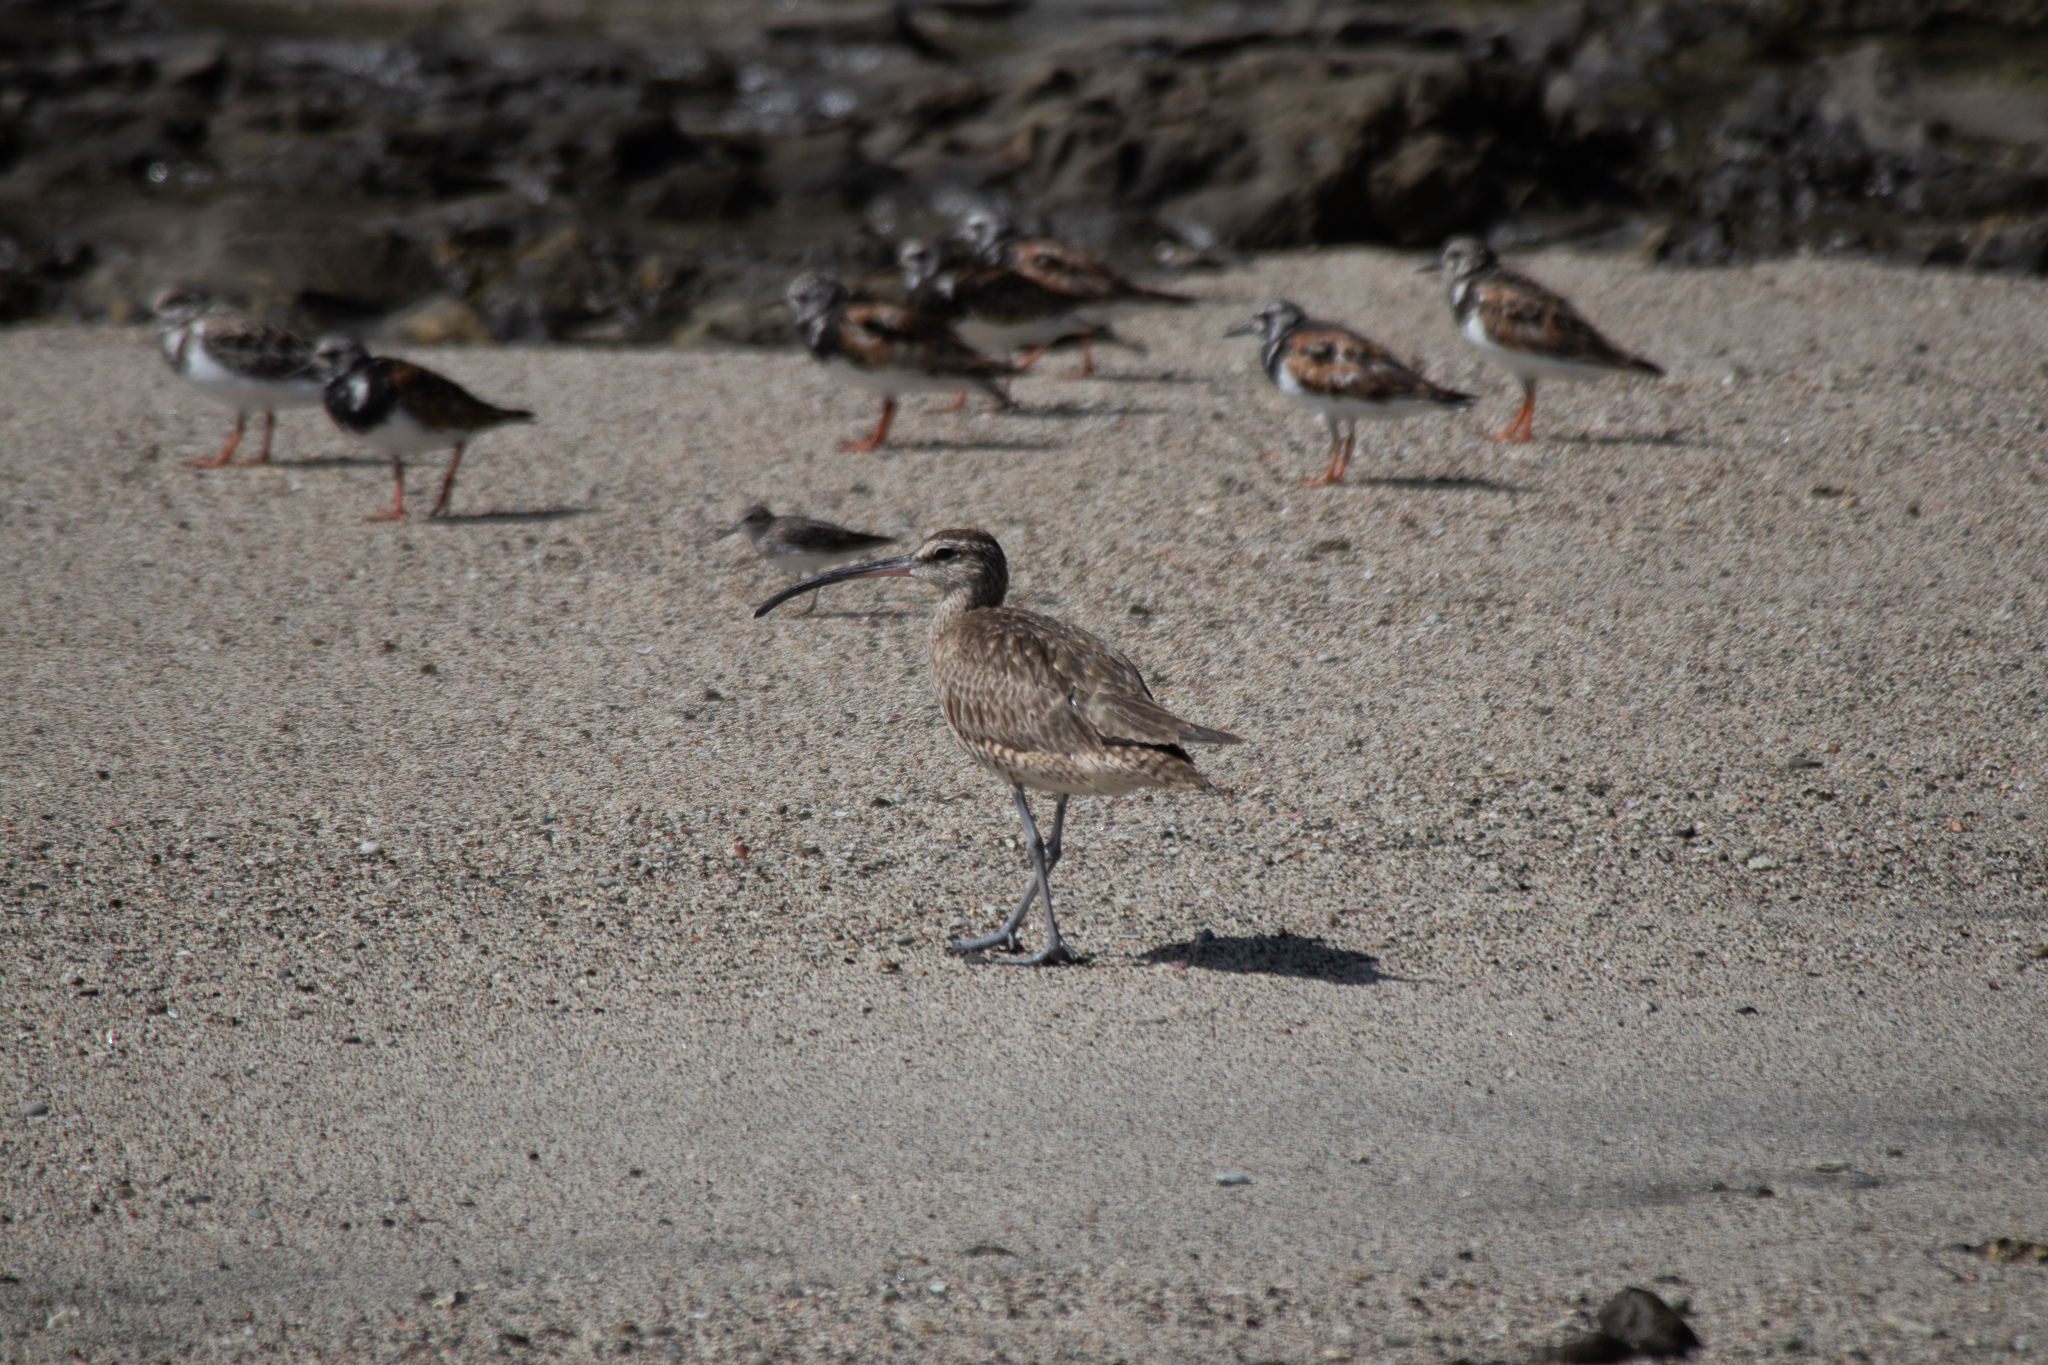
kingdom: Animalia
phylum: Chordata
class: Aves
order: Charadriiformes
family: Scolopacidae
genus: Numenius
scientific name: Numenius phaeopus
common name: Whimbrel
